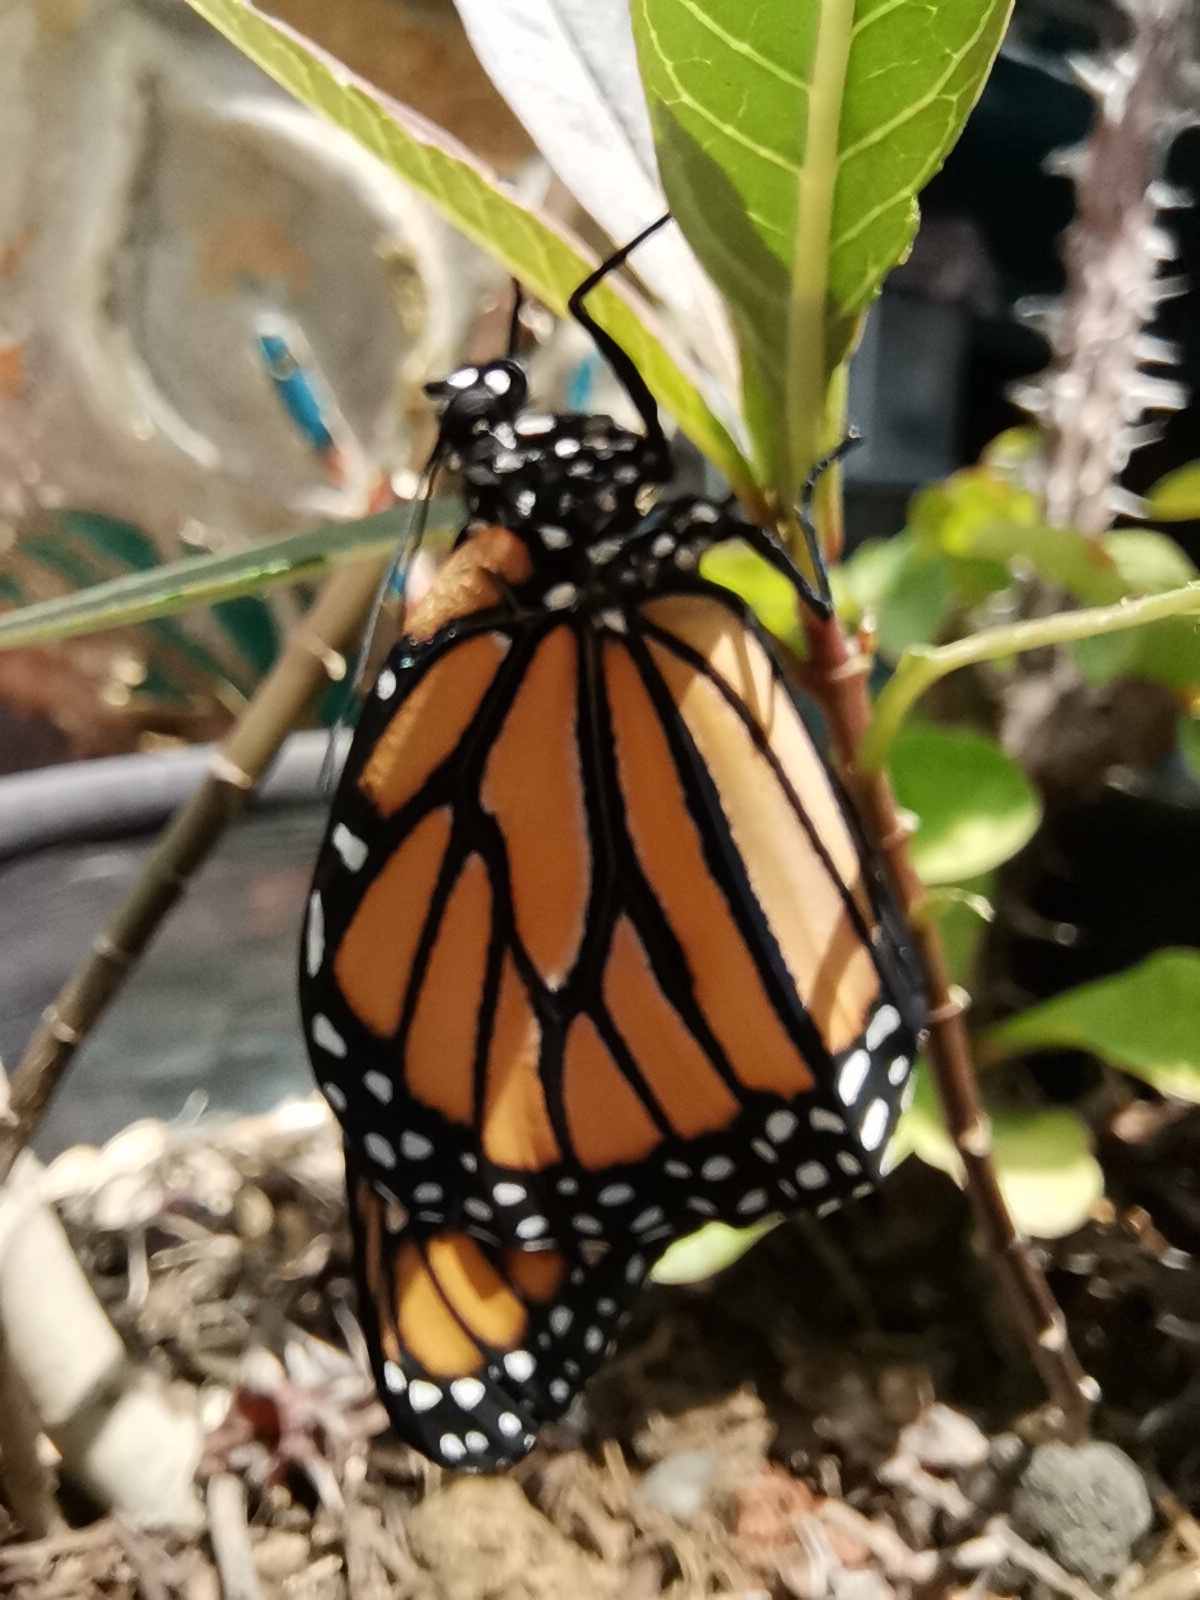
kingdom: Animalia
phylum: Arthropoda
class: Insecta
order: Lepidoptera
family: Nymphalidae
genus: Danaus
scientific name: Danaus plexippus
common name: Monarch
